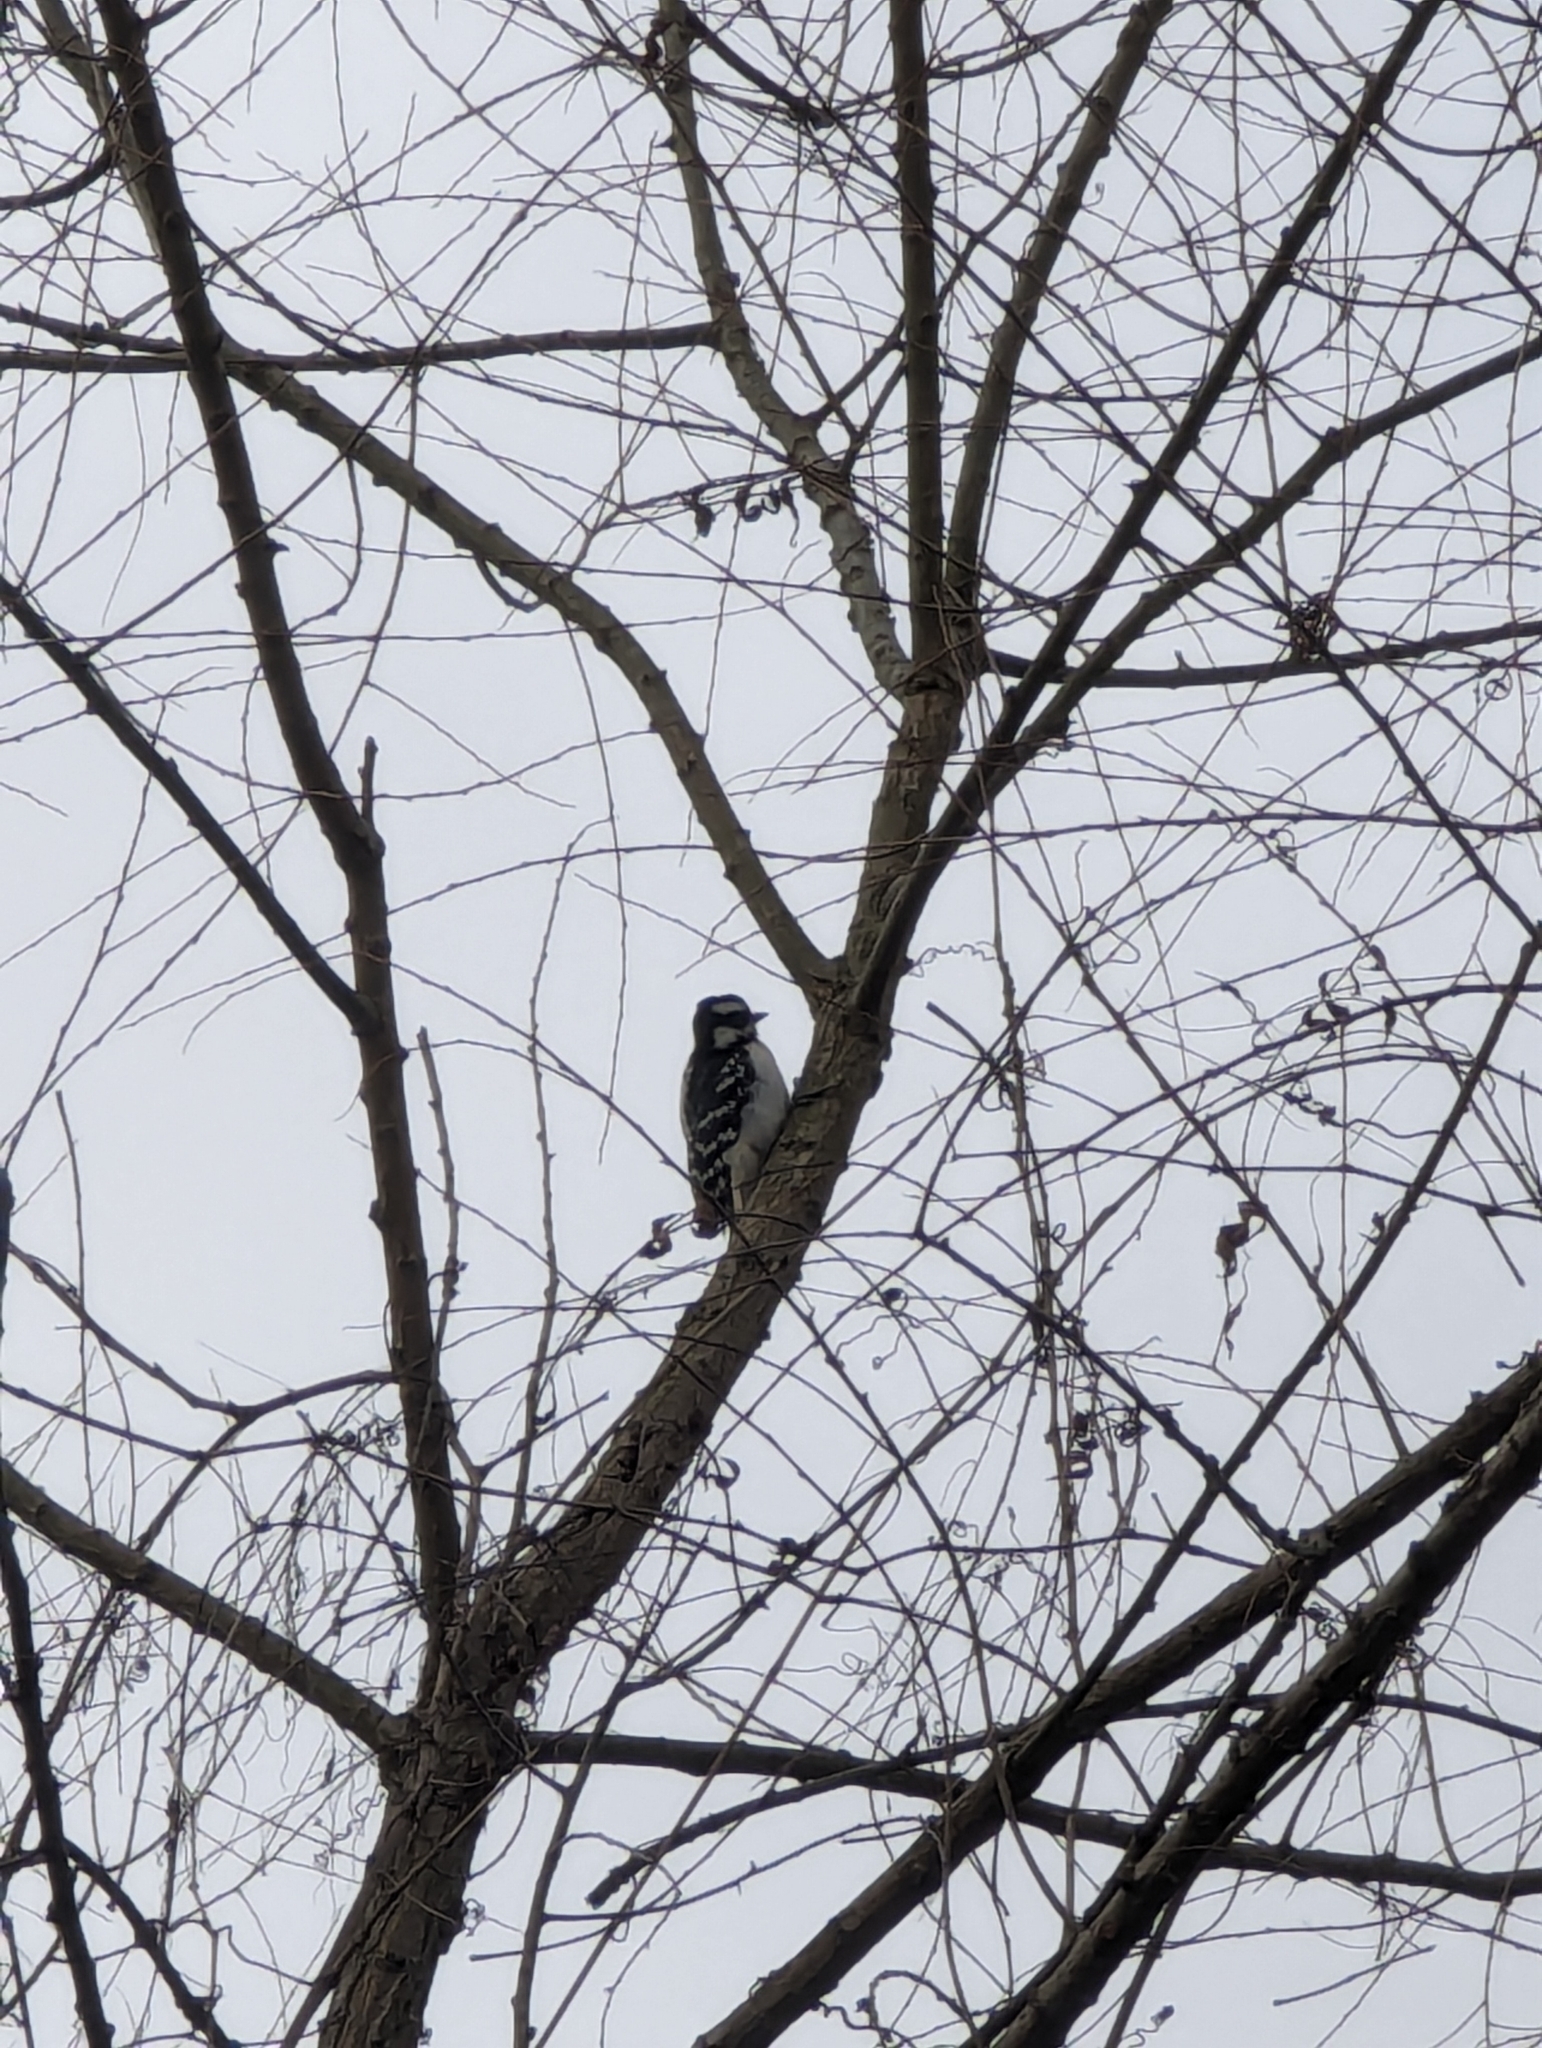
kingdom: Animalia
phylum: Chordata
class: Aves
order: Piciformes
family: Picidae
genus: Leuconotopicus
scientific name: Leuconotopicus villosus
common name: Hairy woodpecker
